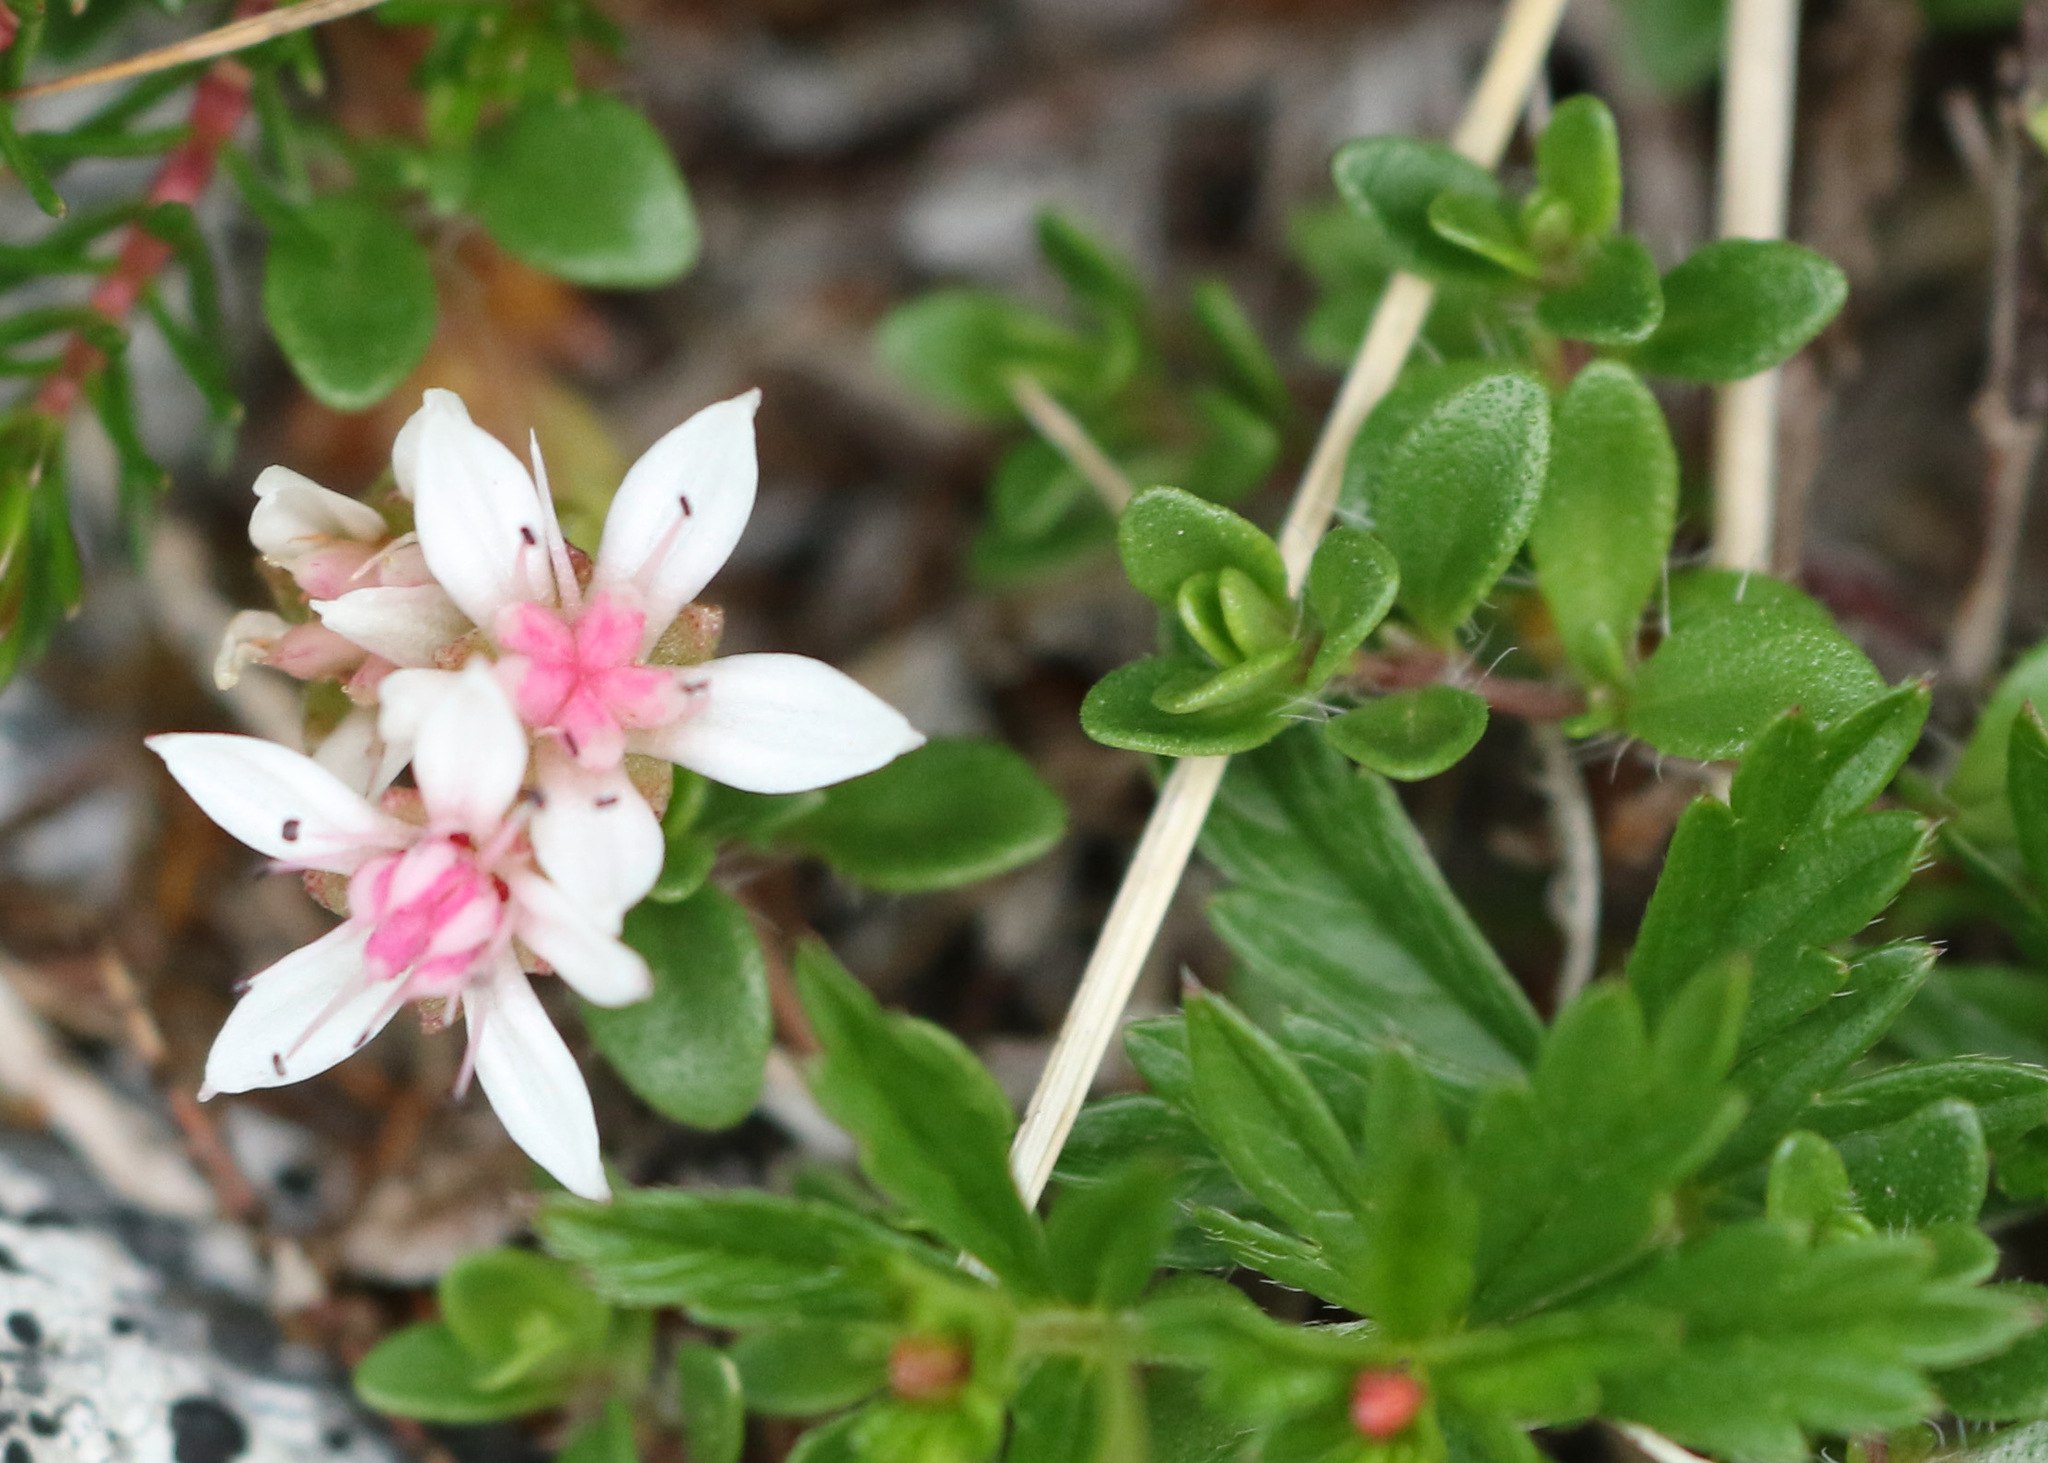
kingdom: Plantae
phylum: Tracheophyta
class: Magnoliopsida
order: Saxifragales
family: Crassulaceae
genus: Sedum
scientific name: Sedum anglicum
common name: English stonecrop
